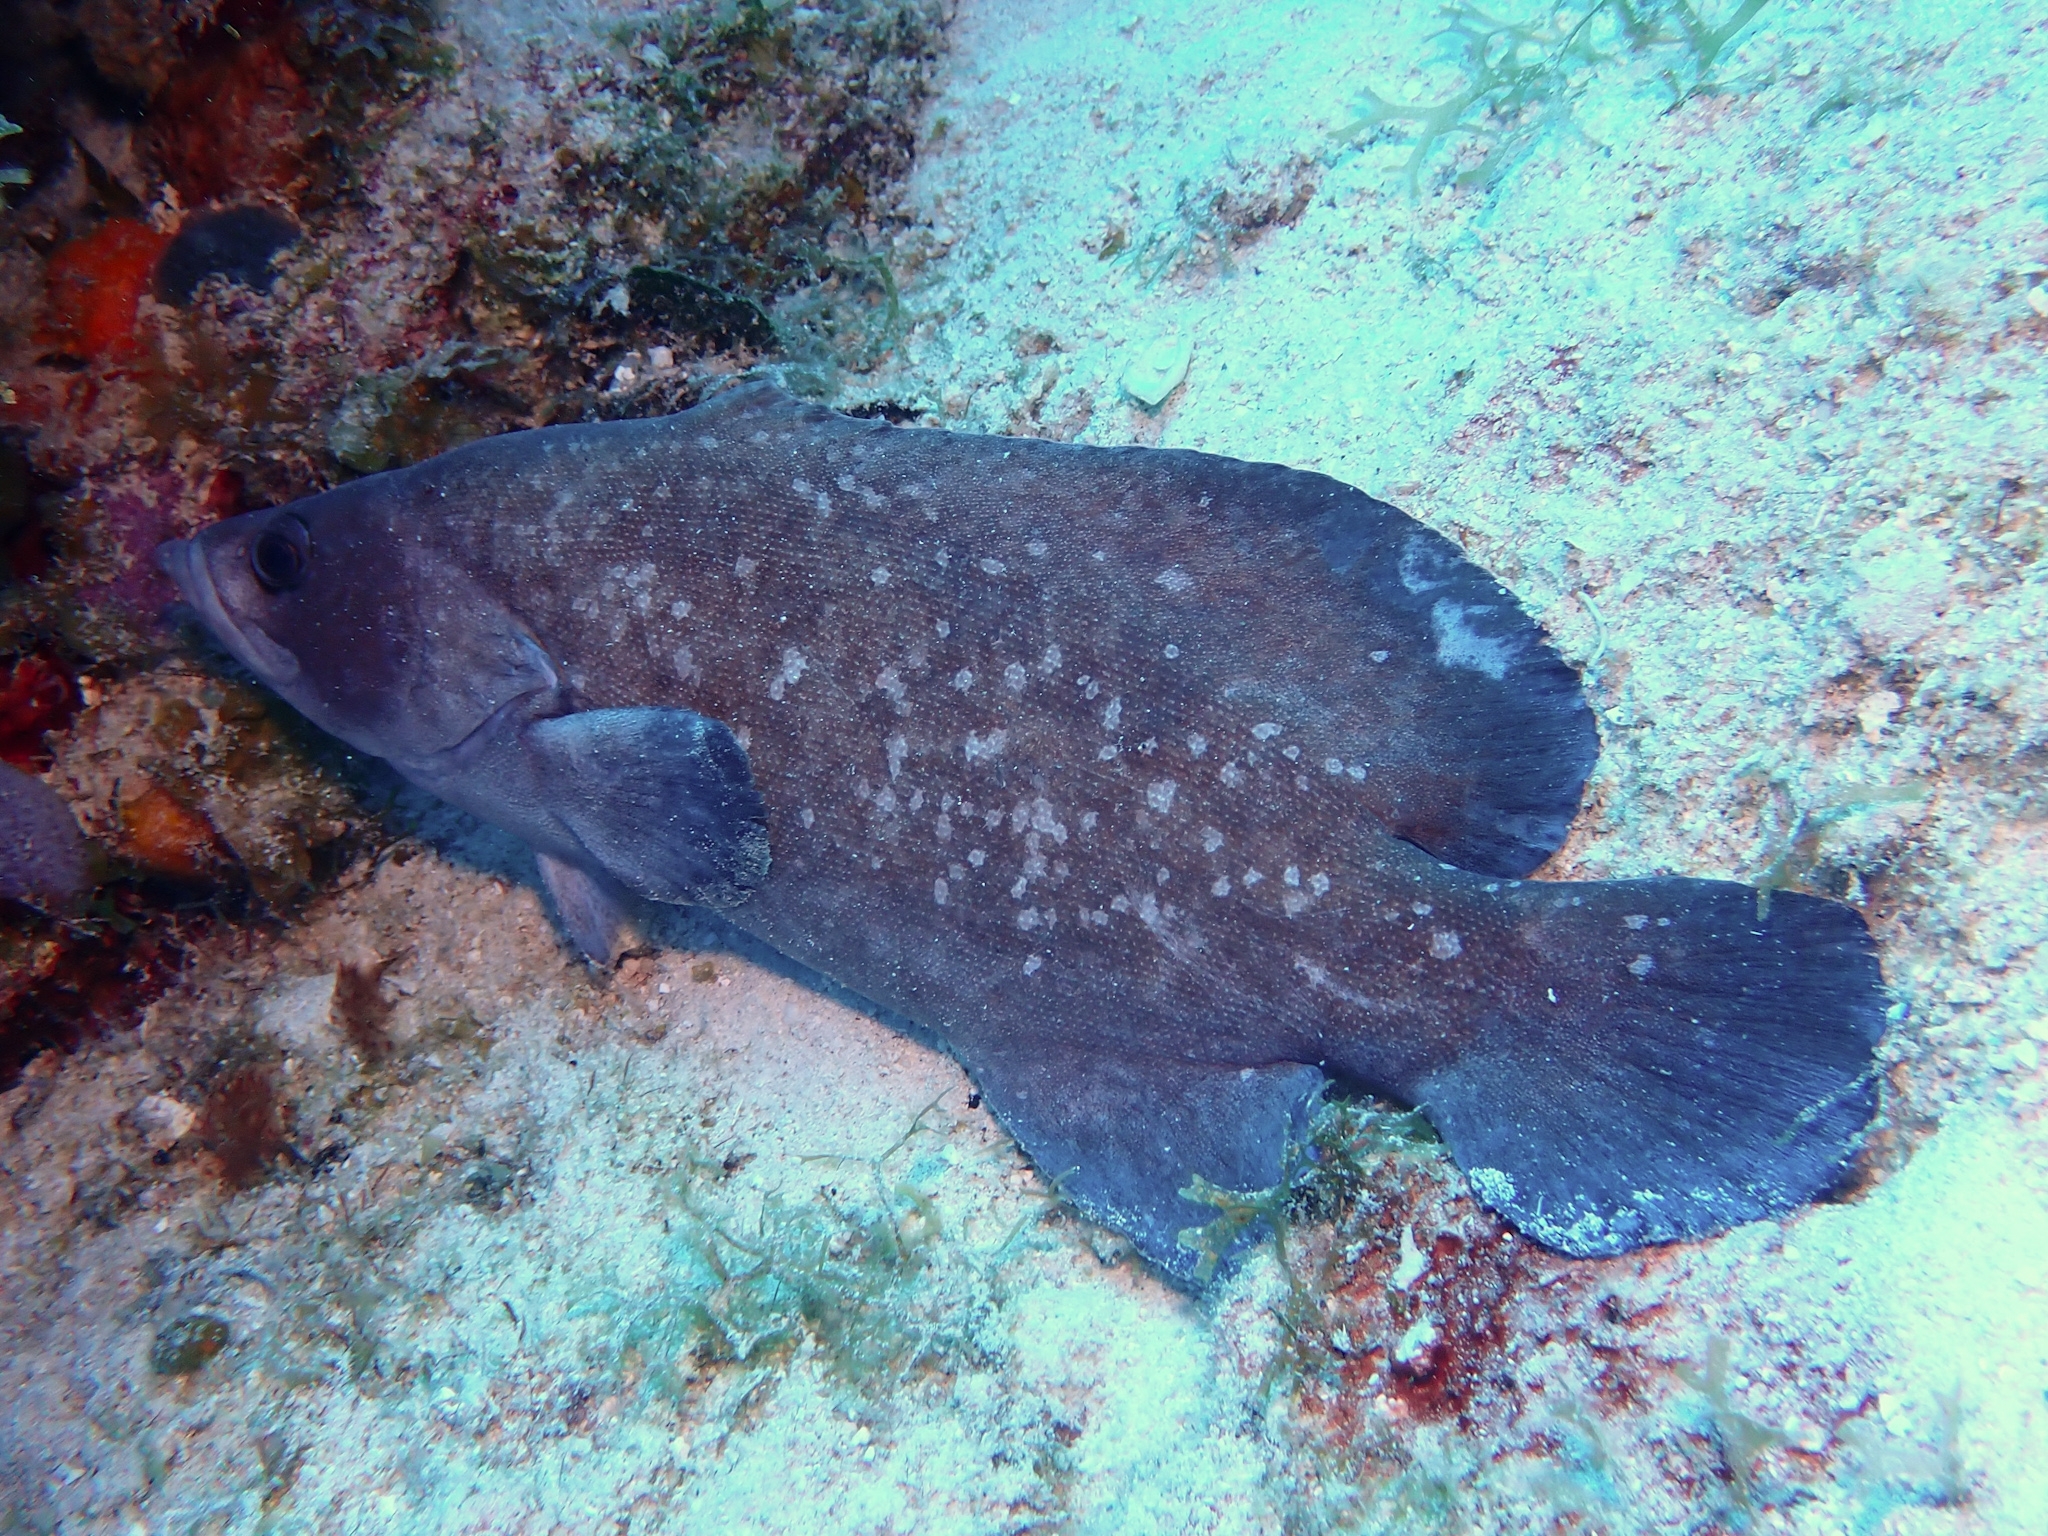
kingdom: Animalia
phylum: Chordata
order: Perciformes
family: Serranidae
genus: Rypticus
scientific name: Rypticus saponaceus
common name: Soapfish
